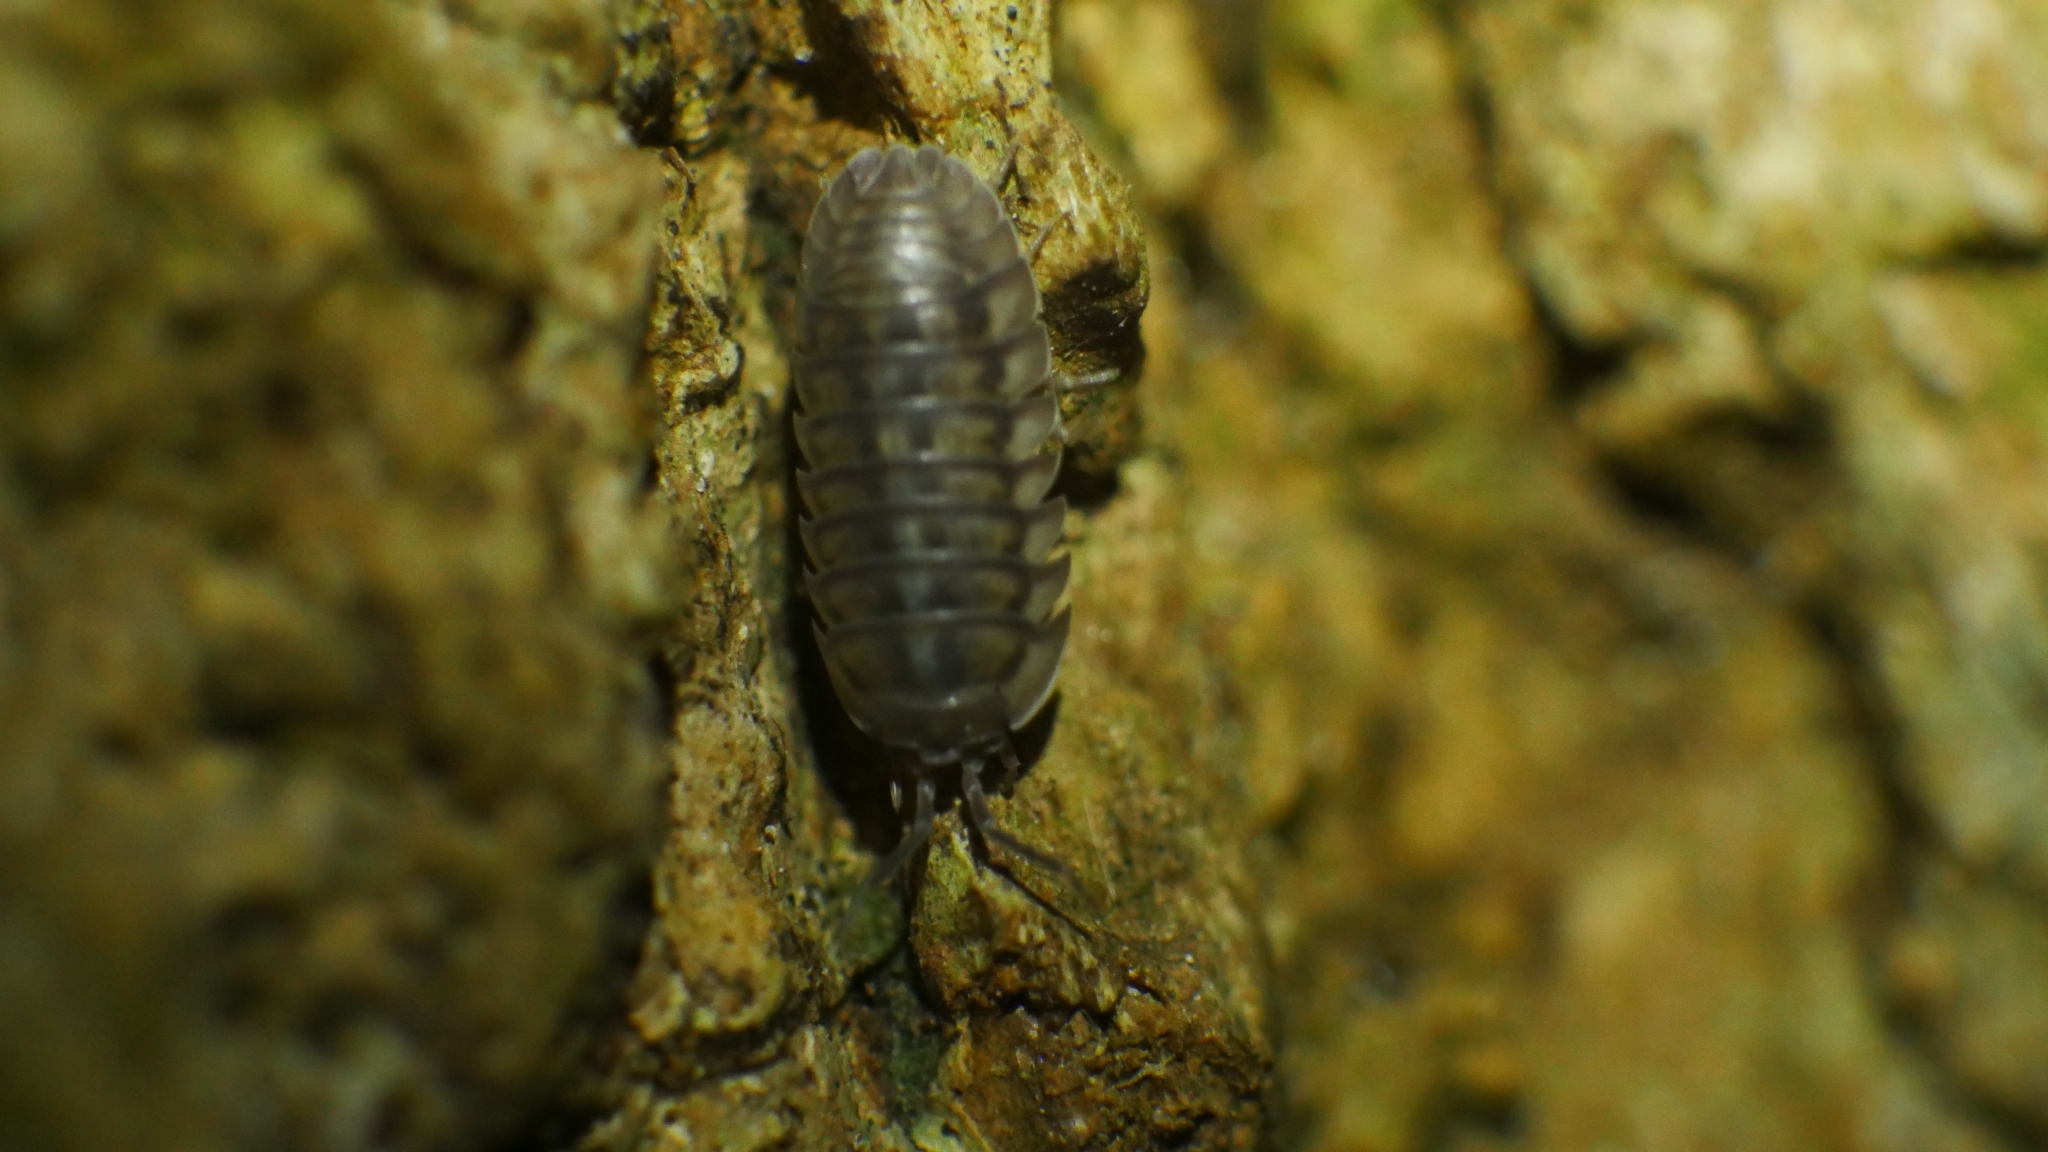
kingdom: Animalia
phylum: Arthropoda
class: Malacostraca
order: Isopoda
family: Armadillidiidae
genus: Armadillidium
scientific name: Armadillidium nasatum
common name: Isopod
